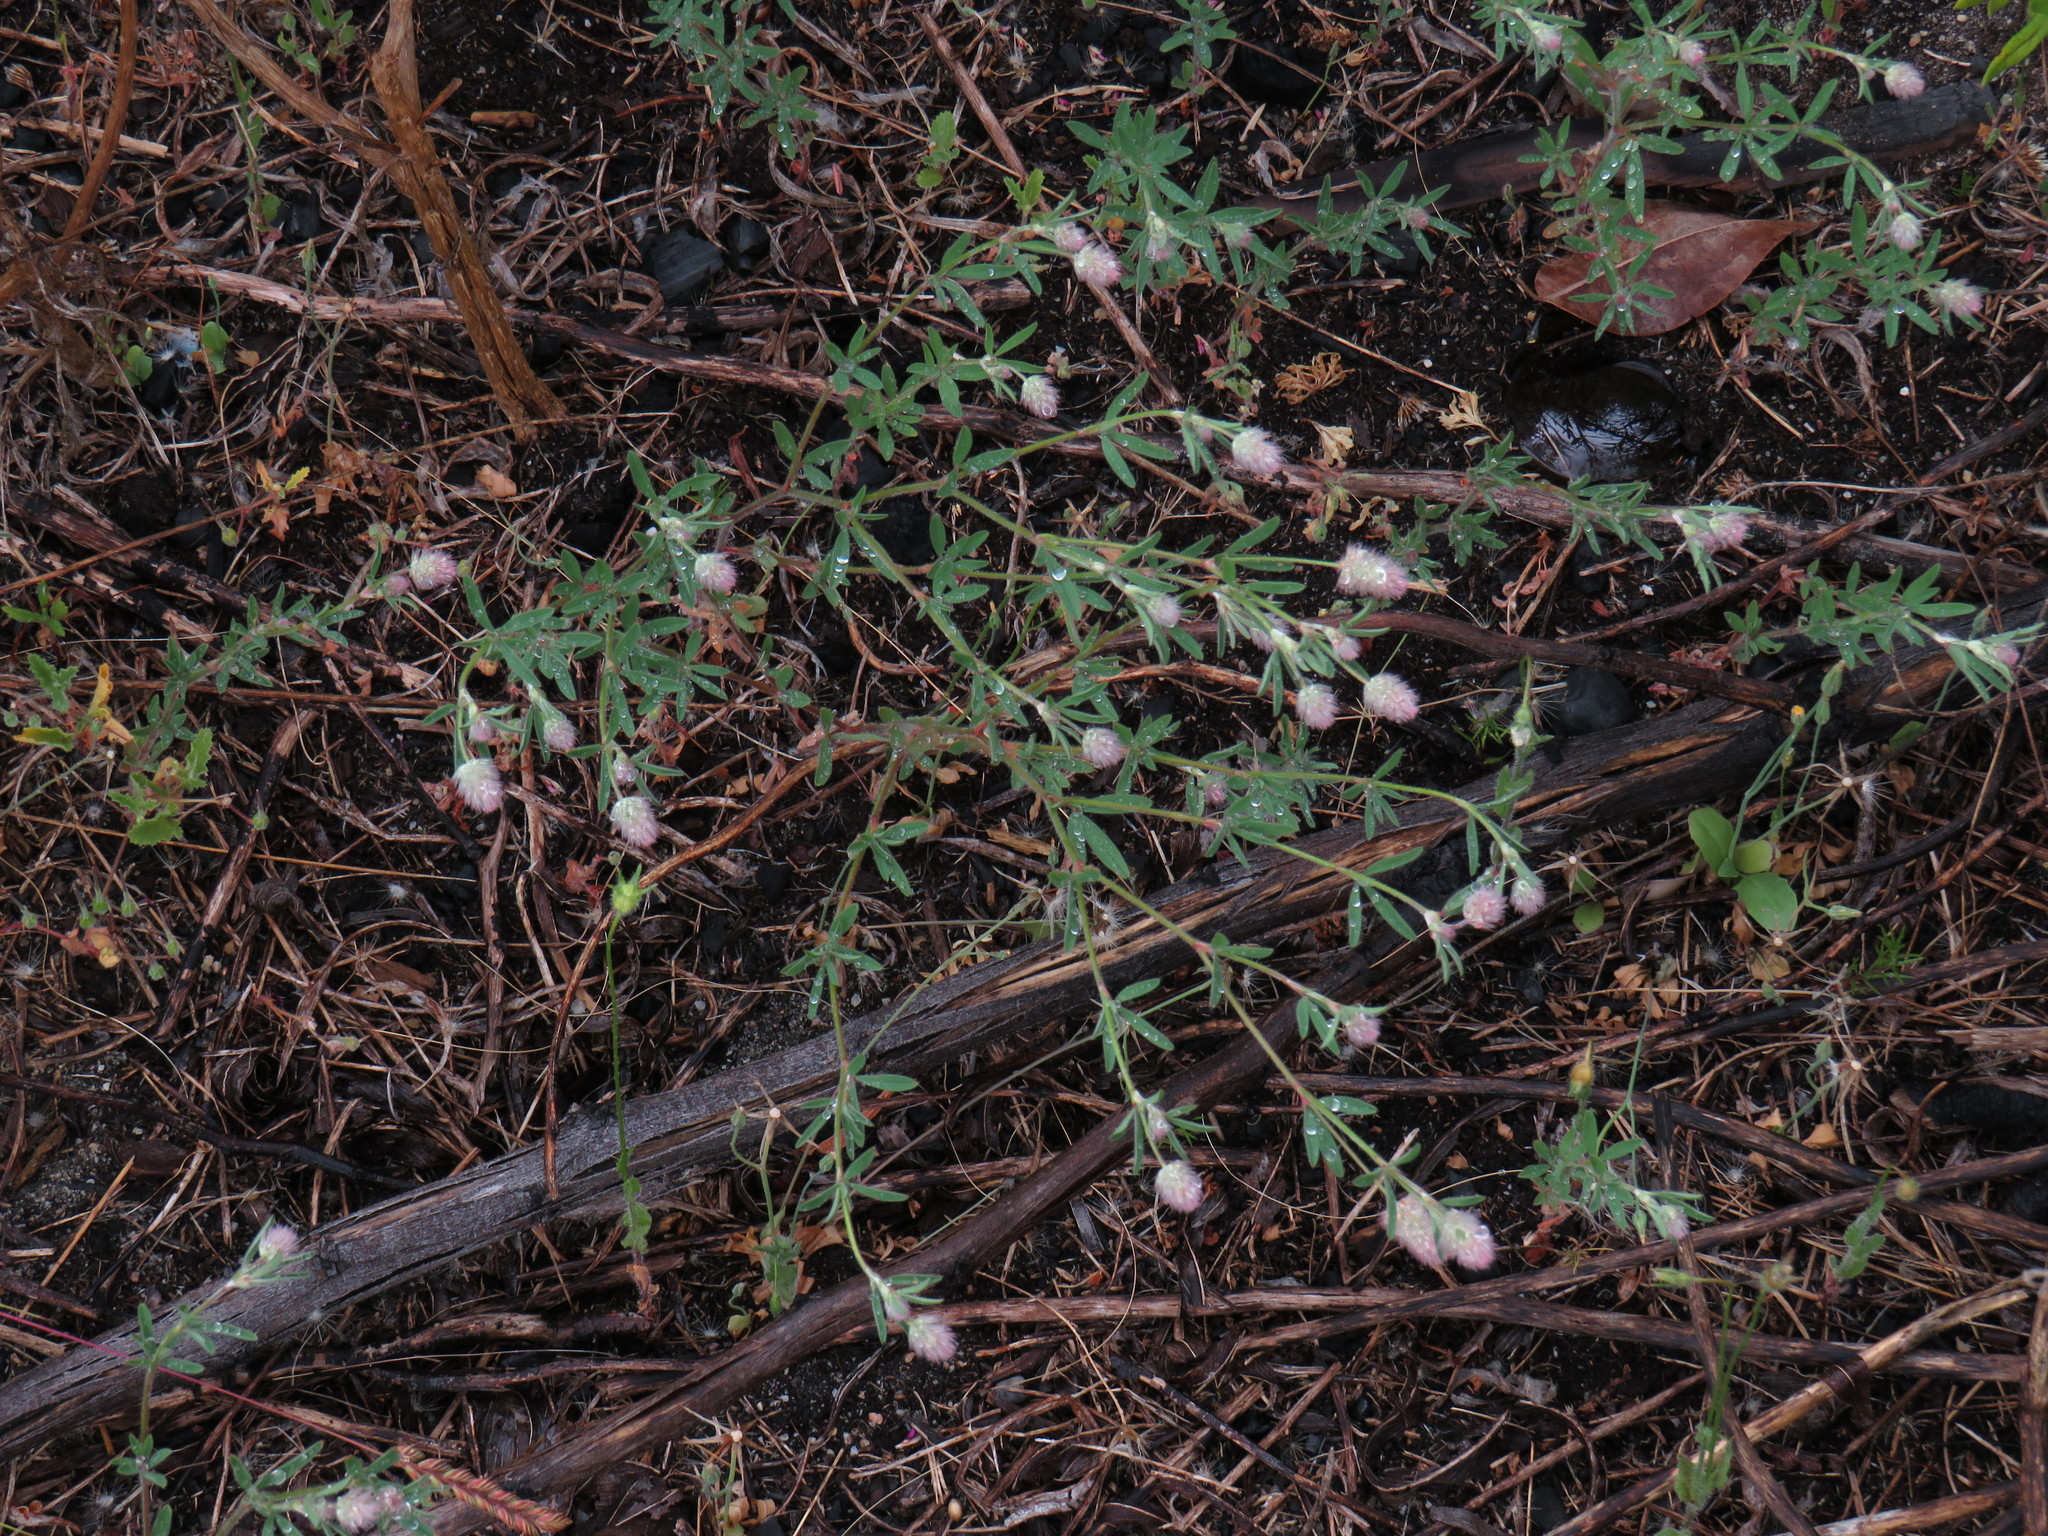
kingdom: Plantae
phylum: Tracheophyta
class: Magnoliopsida
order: Fabales
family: Fabaceae
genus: Trifolium
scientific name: Trifolium arvense
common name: Hare's-foot clover
